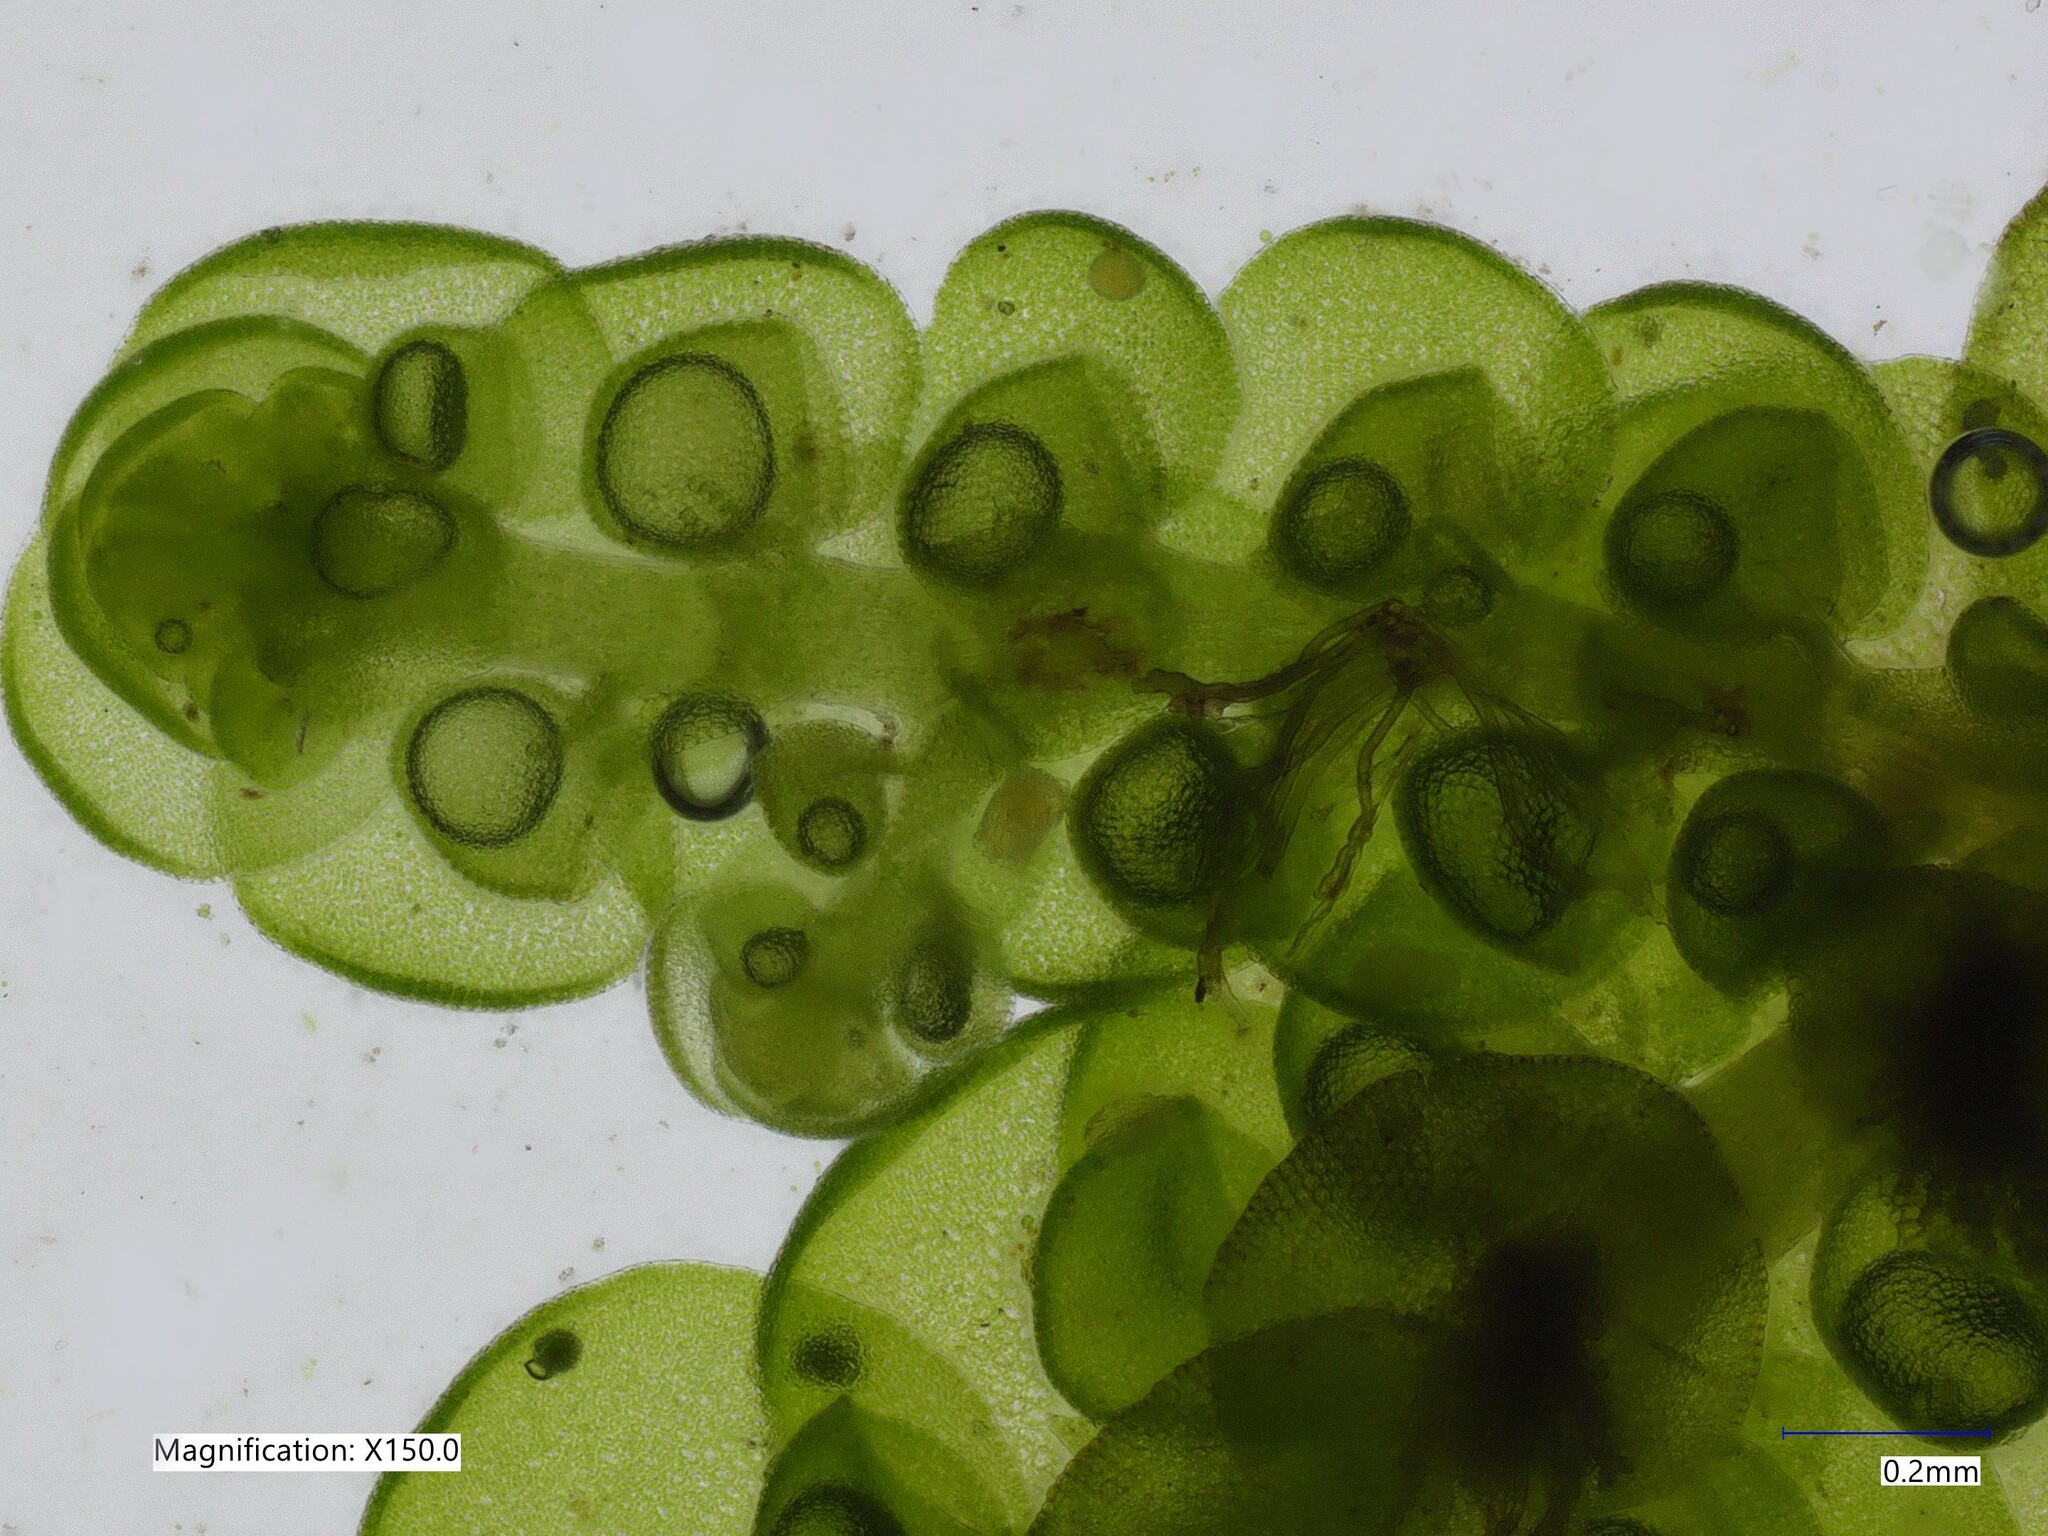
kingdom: Plantae
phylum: Marchantiophyta
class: Jungermanniopsida
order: Porellales
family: Frullaniaceae
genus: Frullania
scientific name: Frullania dilatata
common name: Dilated scalewort
